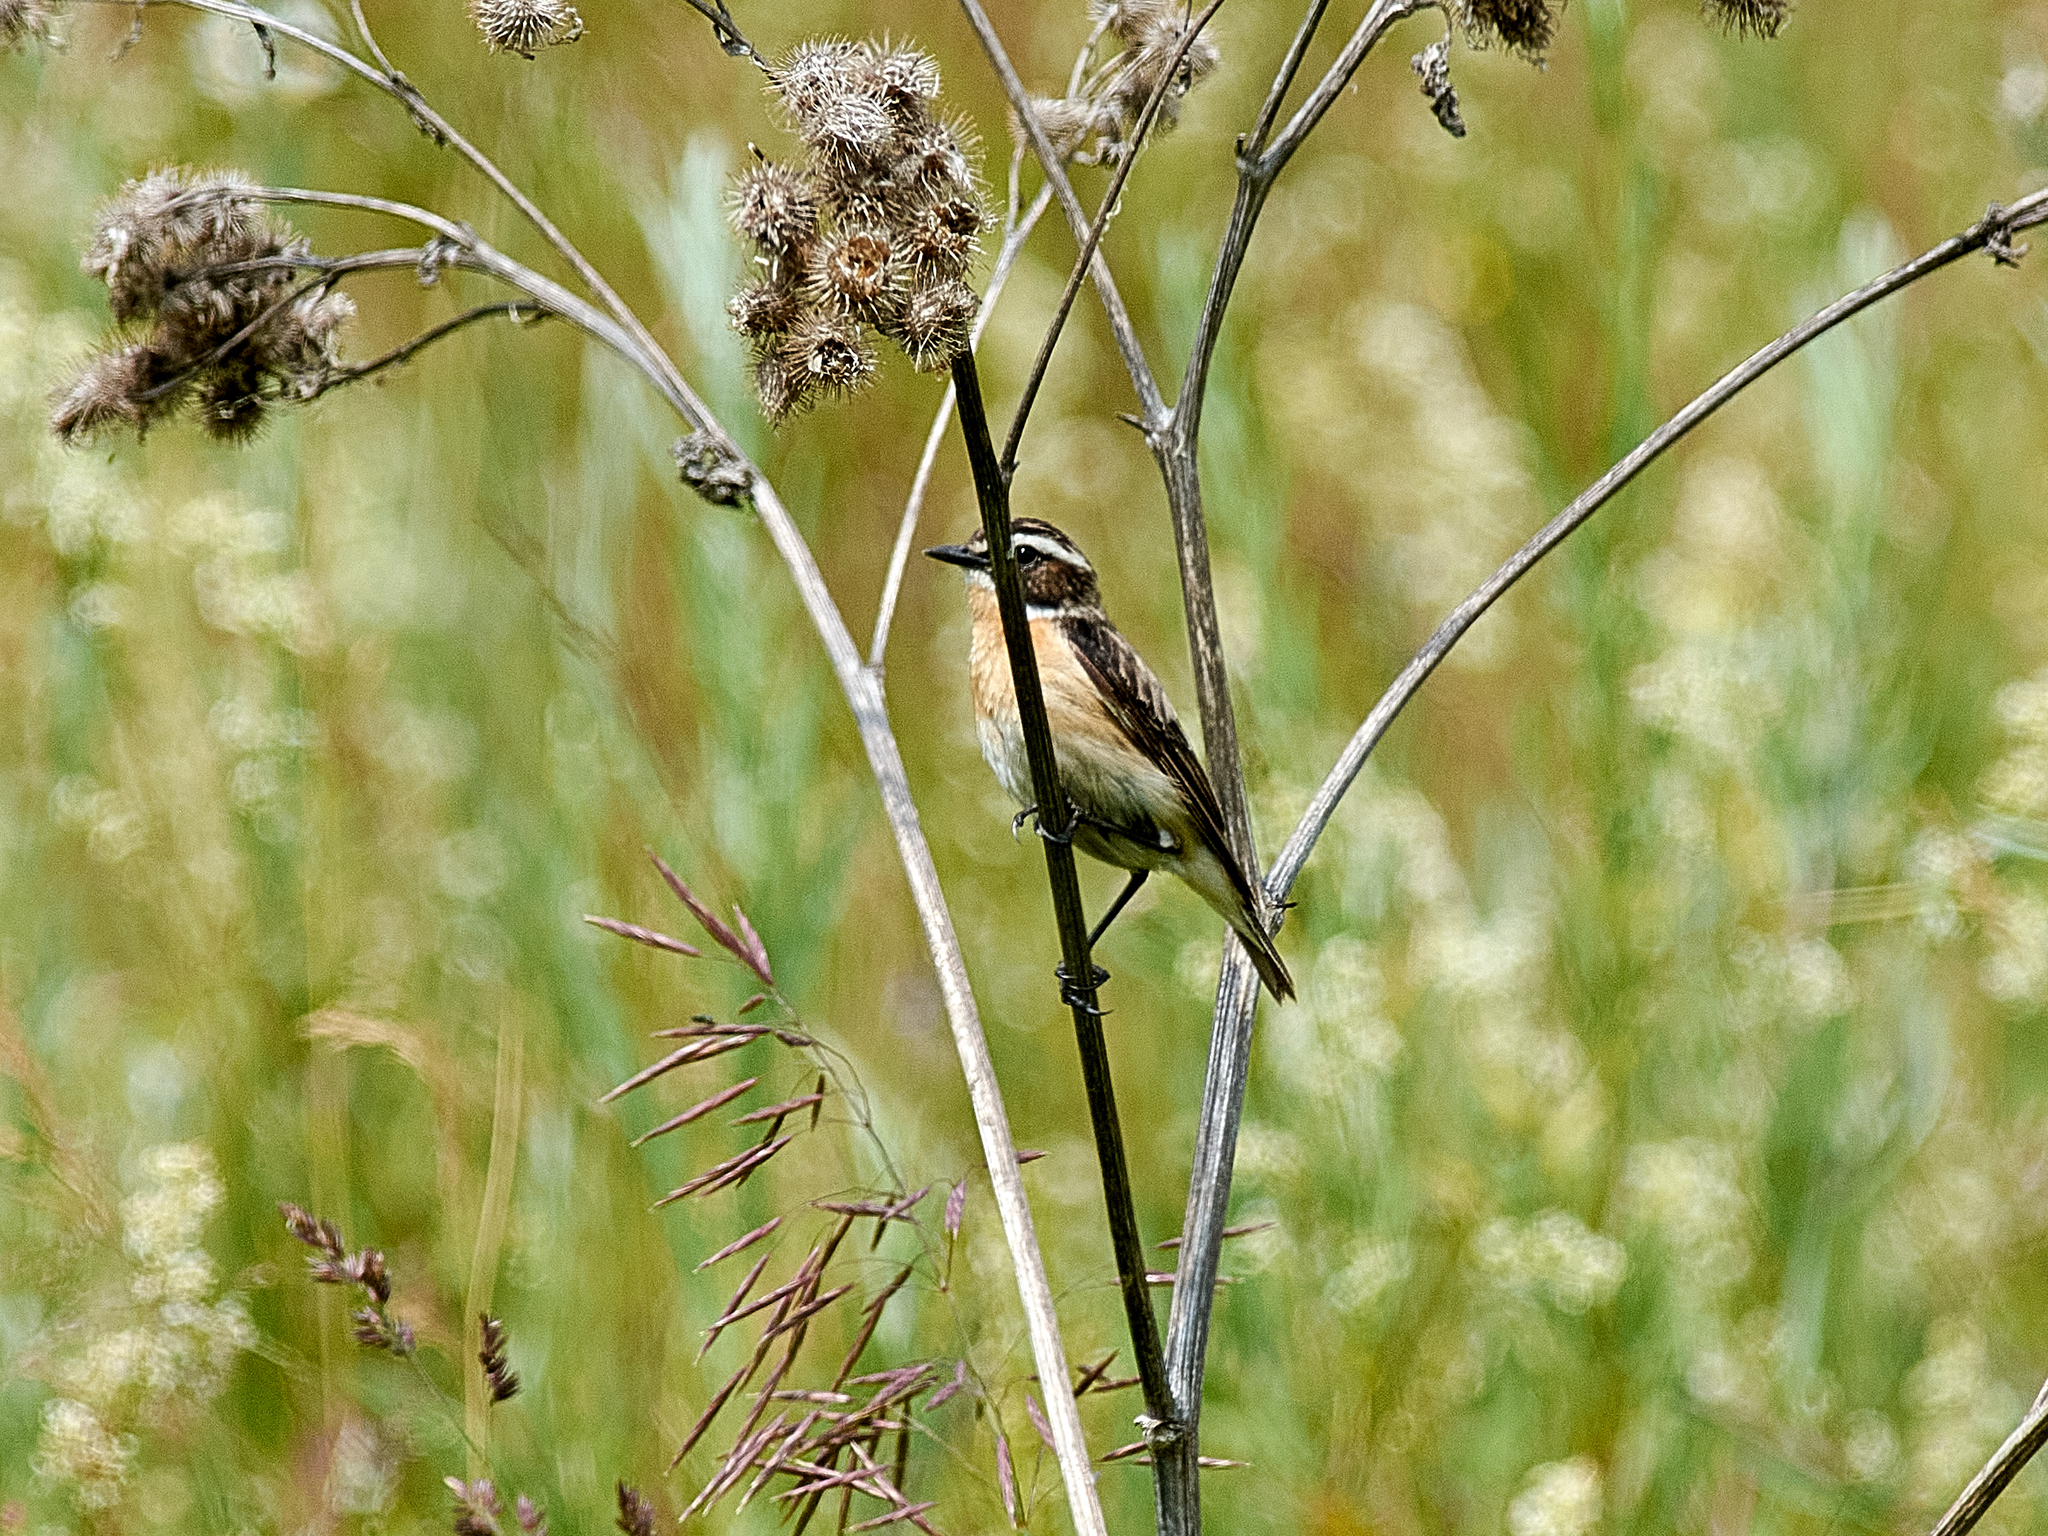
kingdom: Animalia
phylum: Chordata
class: Aves
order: Passeriformes
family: Muscicapidae
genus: Saxicola
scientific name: Saxicola rubetra
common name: Whinchat
